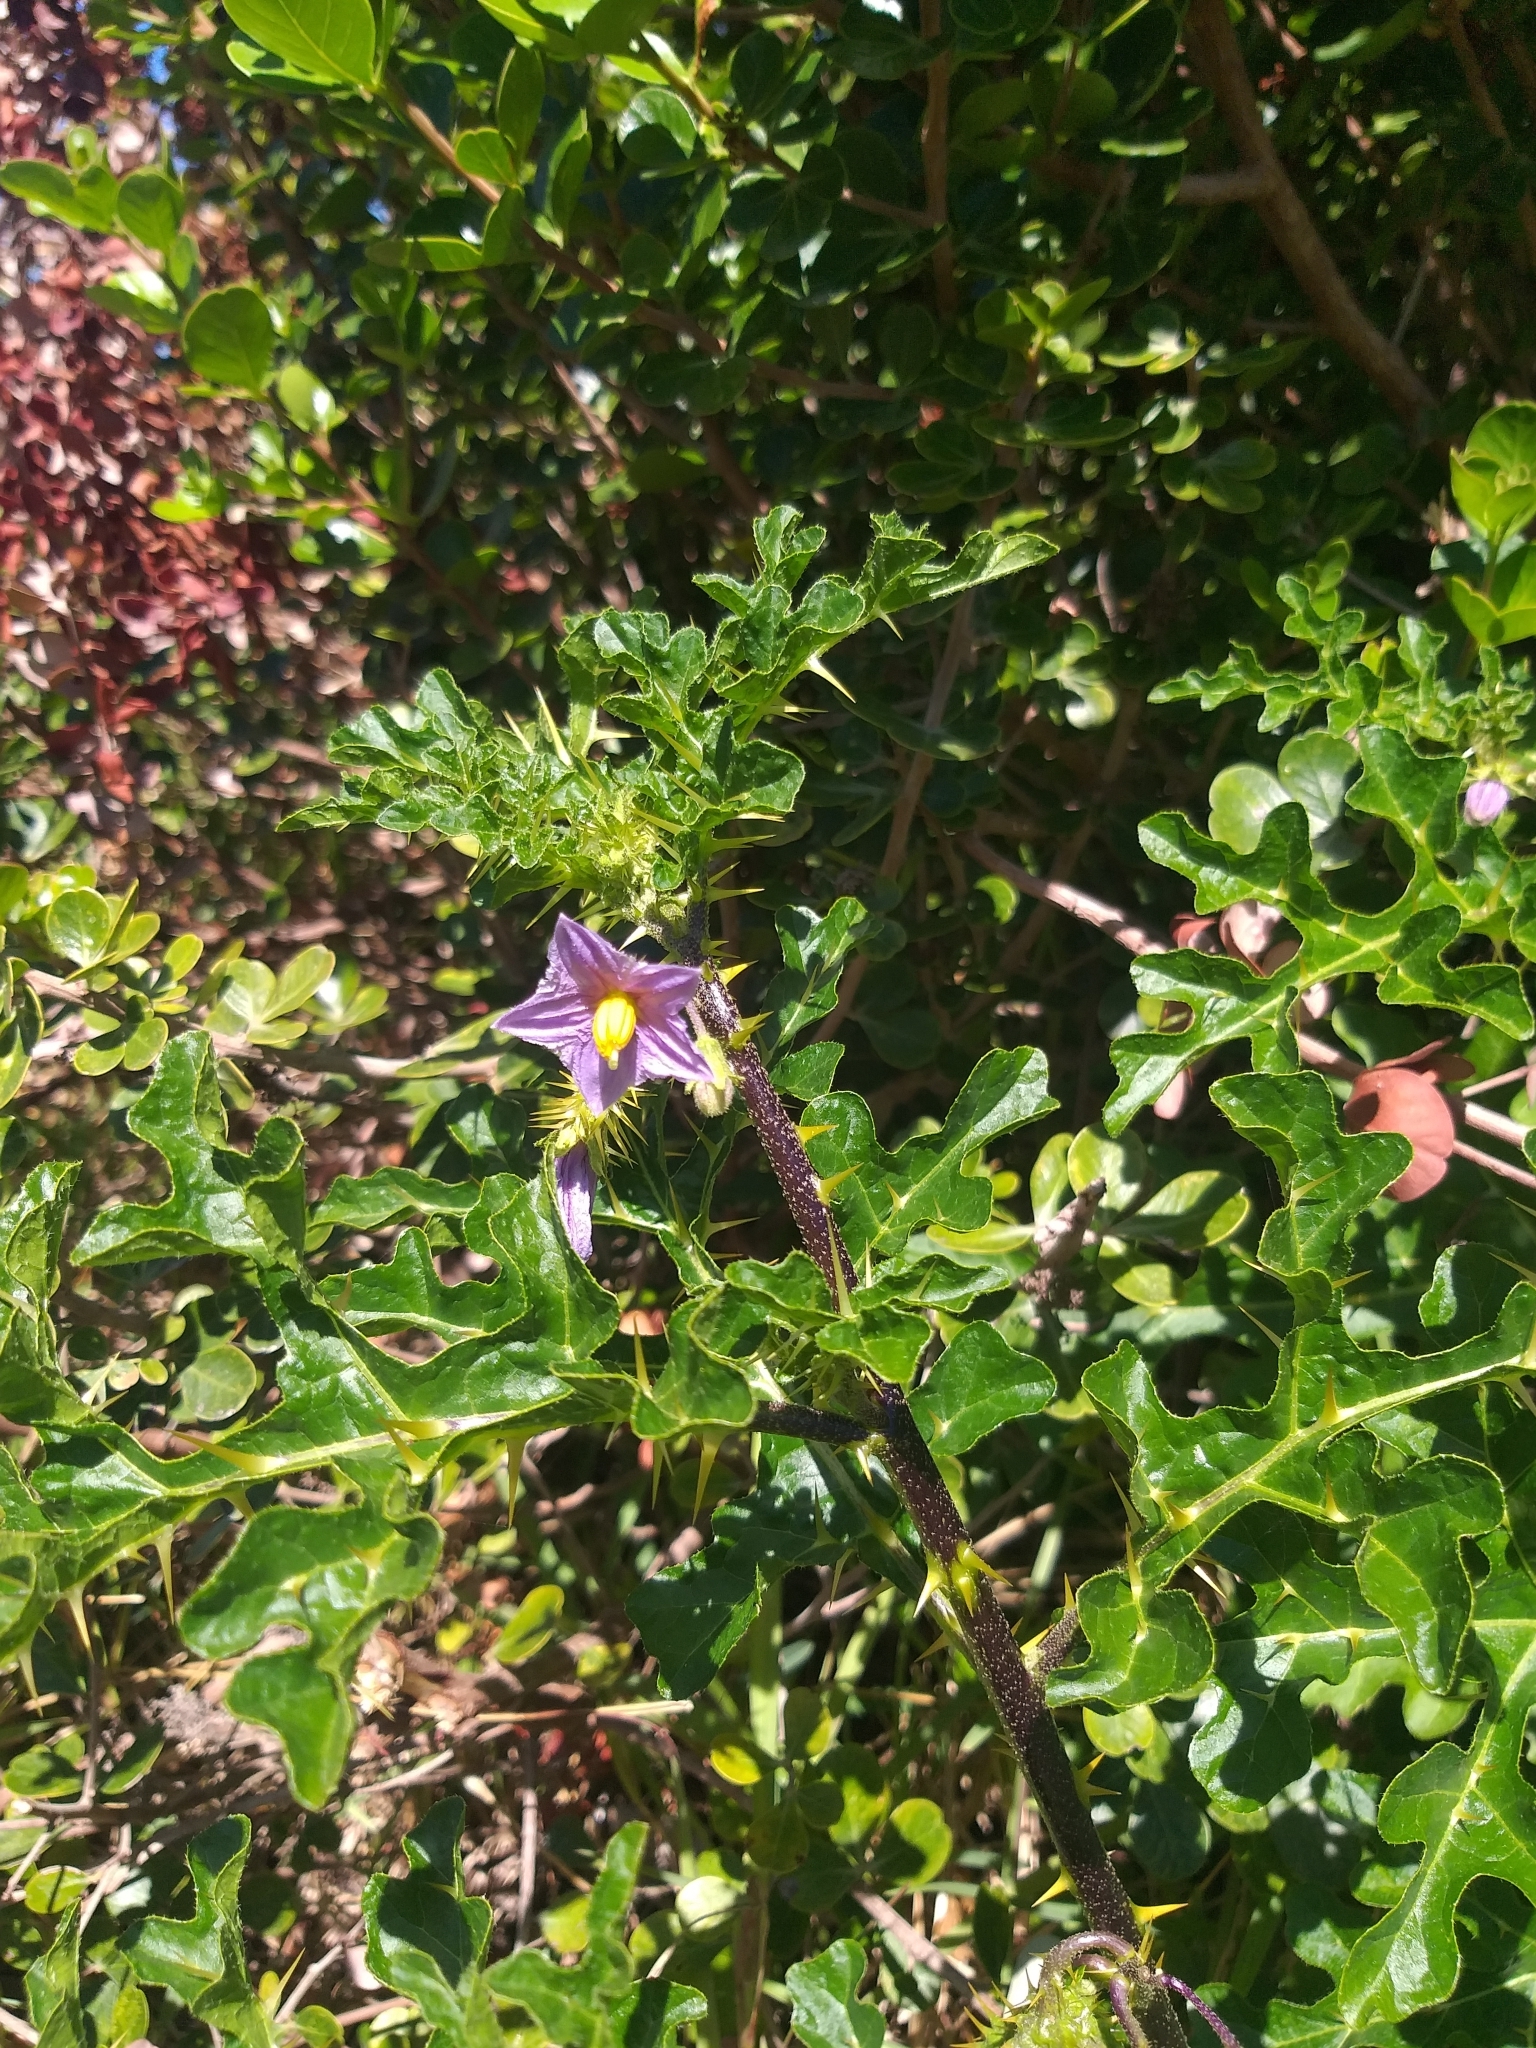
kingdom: Plantae
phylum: Tracheophyta
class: Magnoliopsida
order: Solanales
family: Solanaceae
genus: Solanum
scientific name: Solanum linnaeanum
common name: Nightshade
